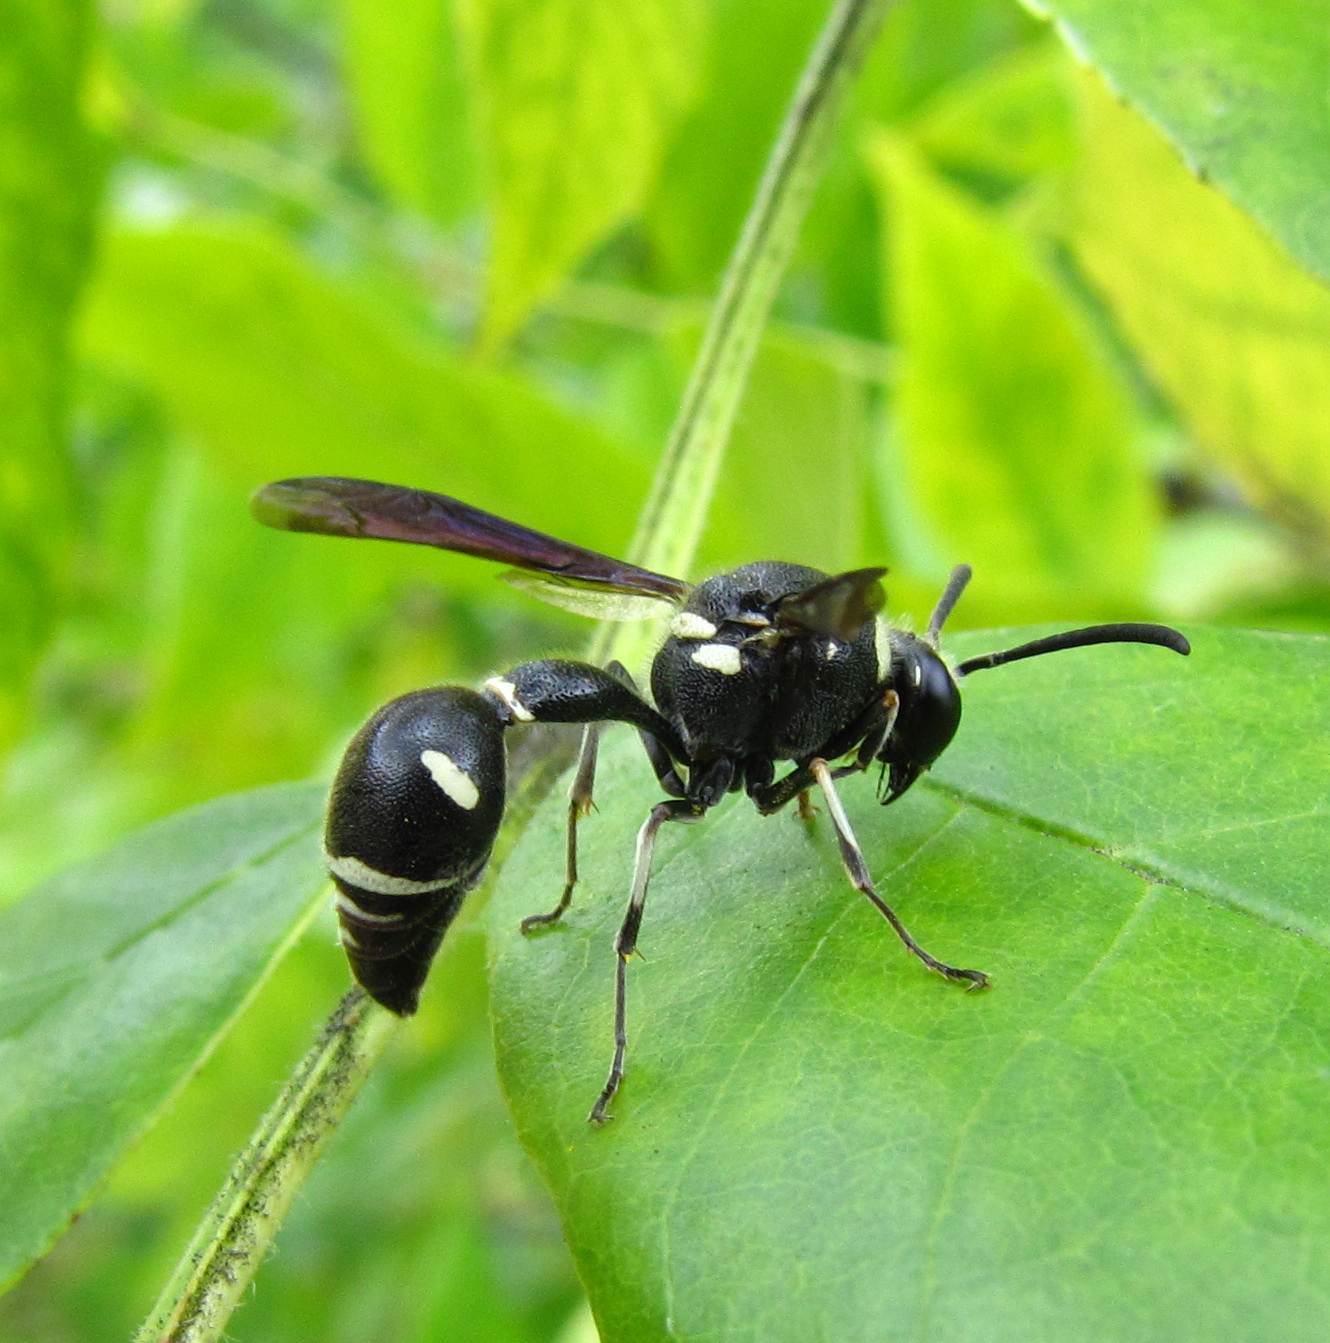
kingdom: Animalia
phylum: Arthropoda
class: Insecta
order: Hymenoptera
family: Vespidae
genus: Eumenes
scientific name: Eumenes fraternus
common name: Fraternal potter wasp
